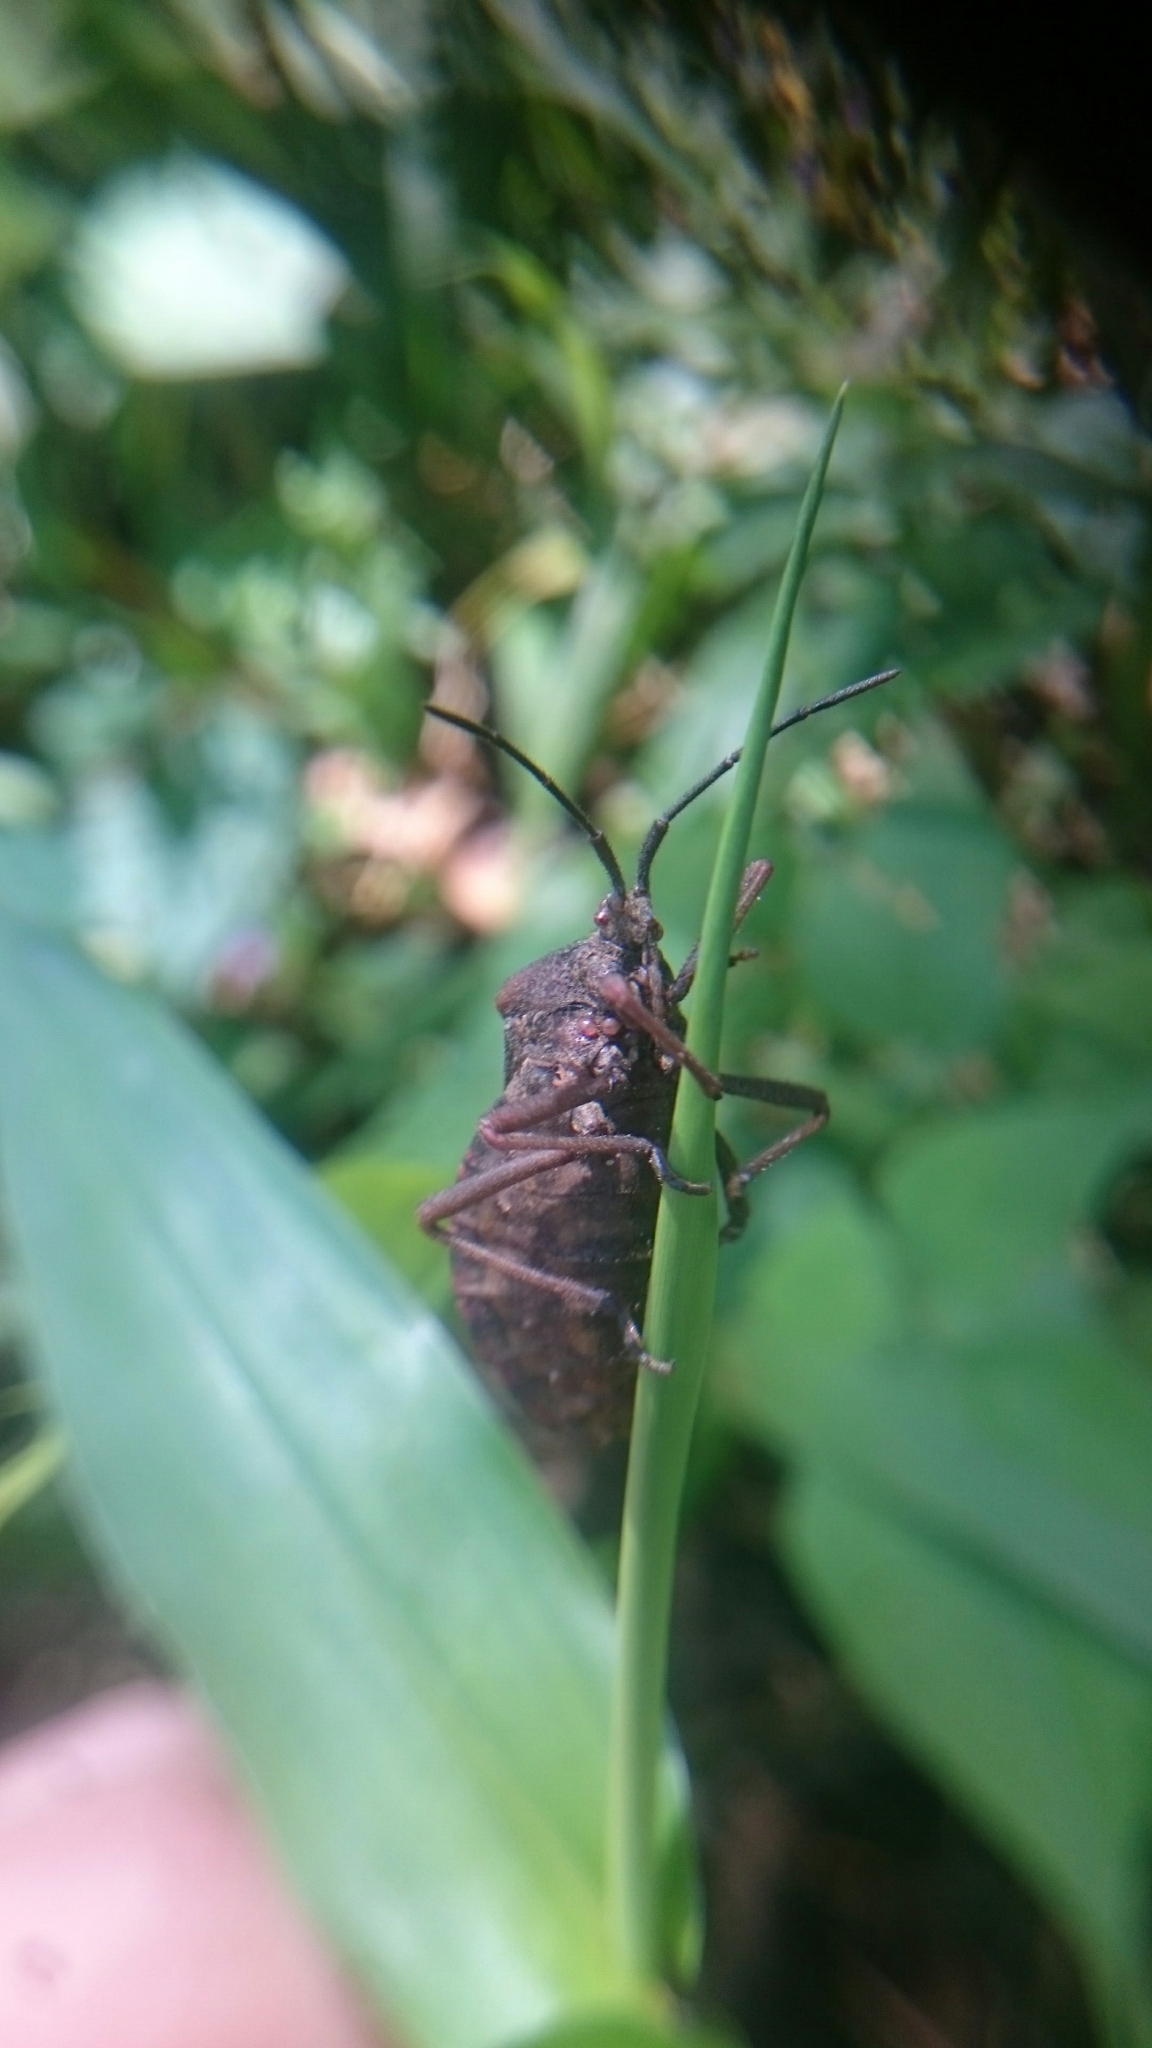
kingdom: Animalia
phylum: Arthropoda
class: Insecta
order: Hemiptera
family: Coreidae
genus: Spartocera
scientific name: Spartocera batatas
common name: Giant sweetpotato bug
